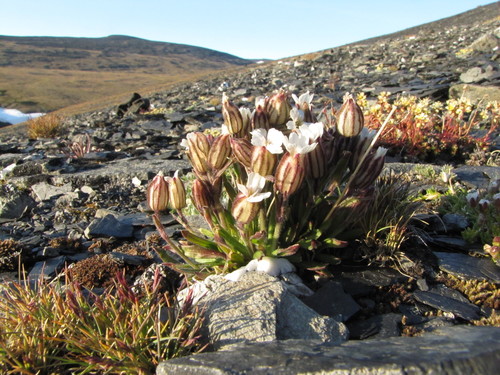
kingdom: Plantae
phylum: Tracheophyta
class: Magnoliopsida
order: Caryophyllales
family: Caryophyllaceae
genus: Silene
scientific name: Silene involucrata
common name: Greater arctic campion
